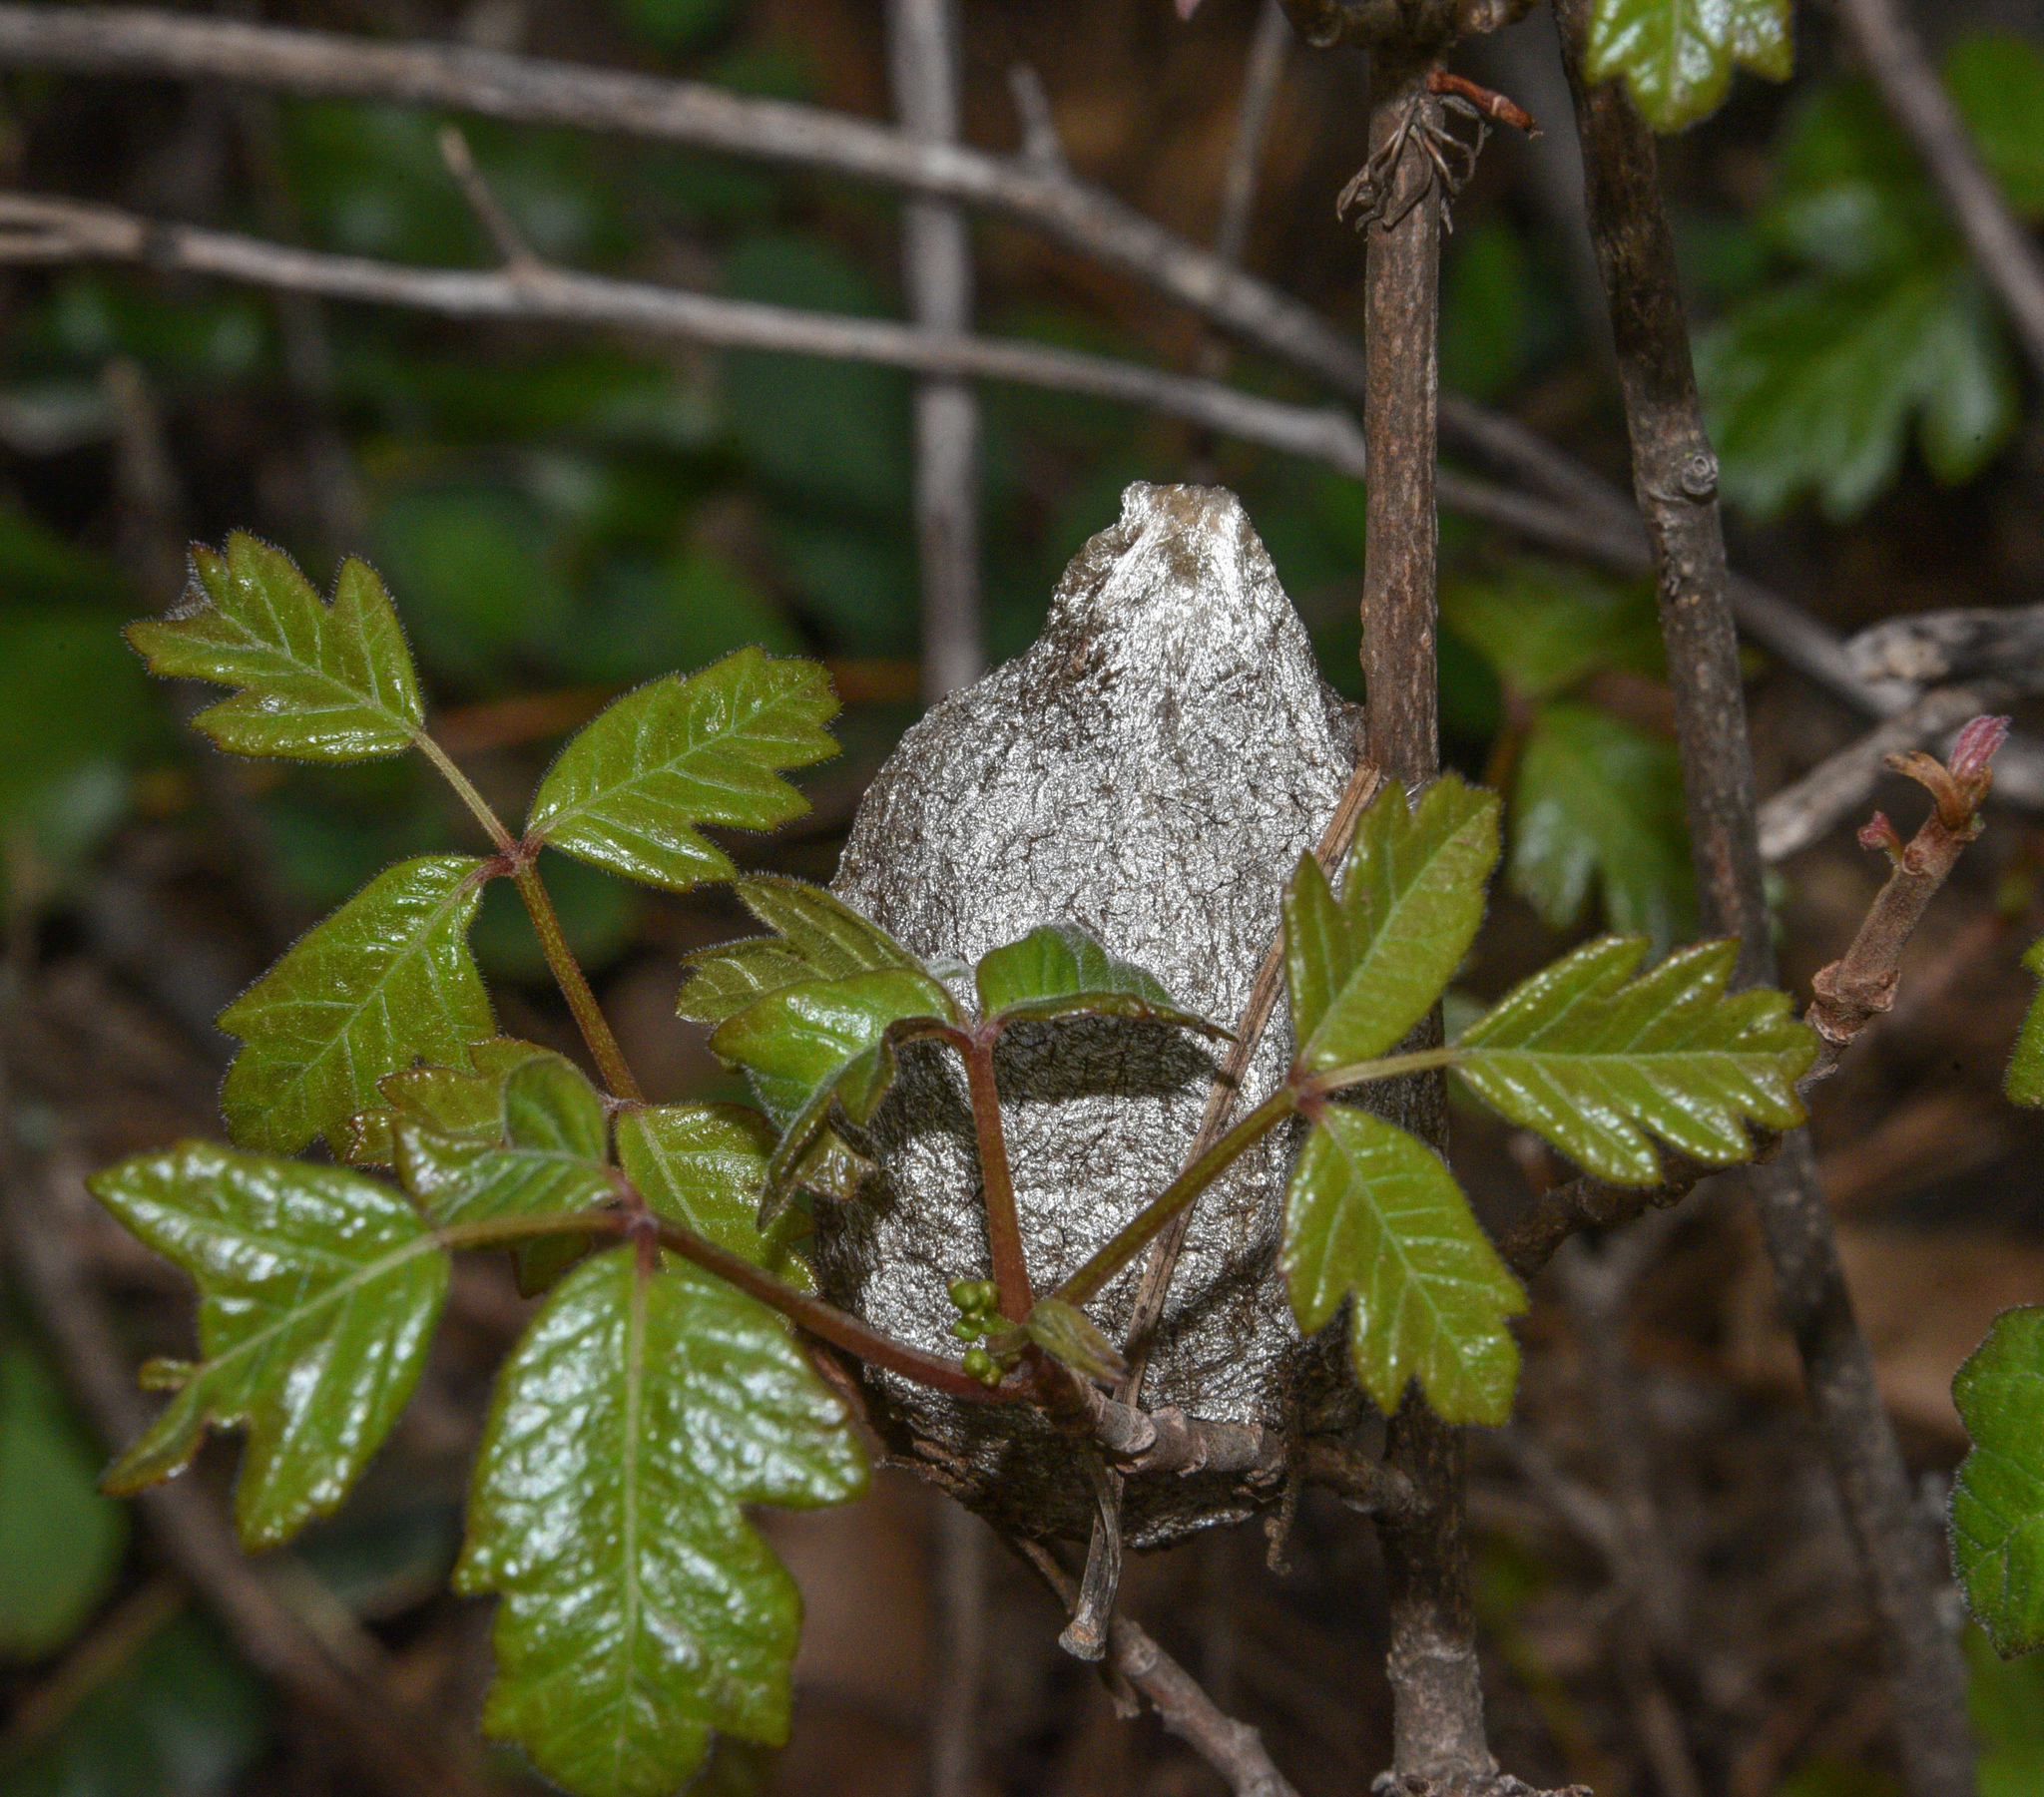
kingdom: Animalia
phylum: Arthropoda
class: Insecta
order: Lepidoptera
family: Saturniidae
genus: Hyalophora
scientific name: Hyalophora euryalus
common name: Ceanothus silkmoth
